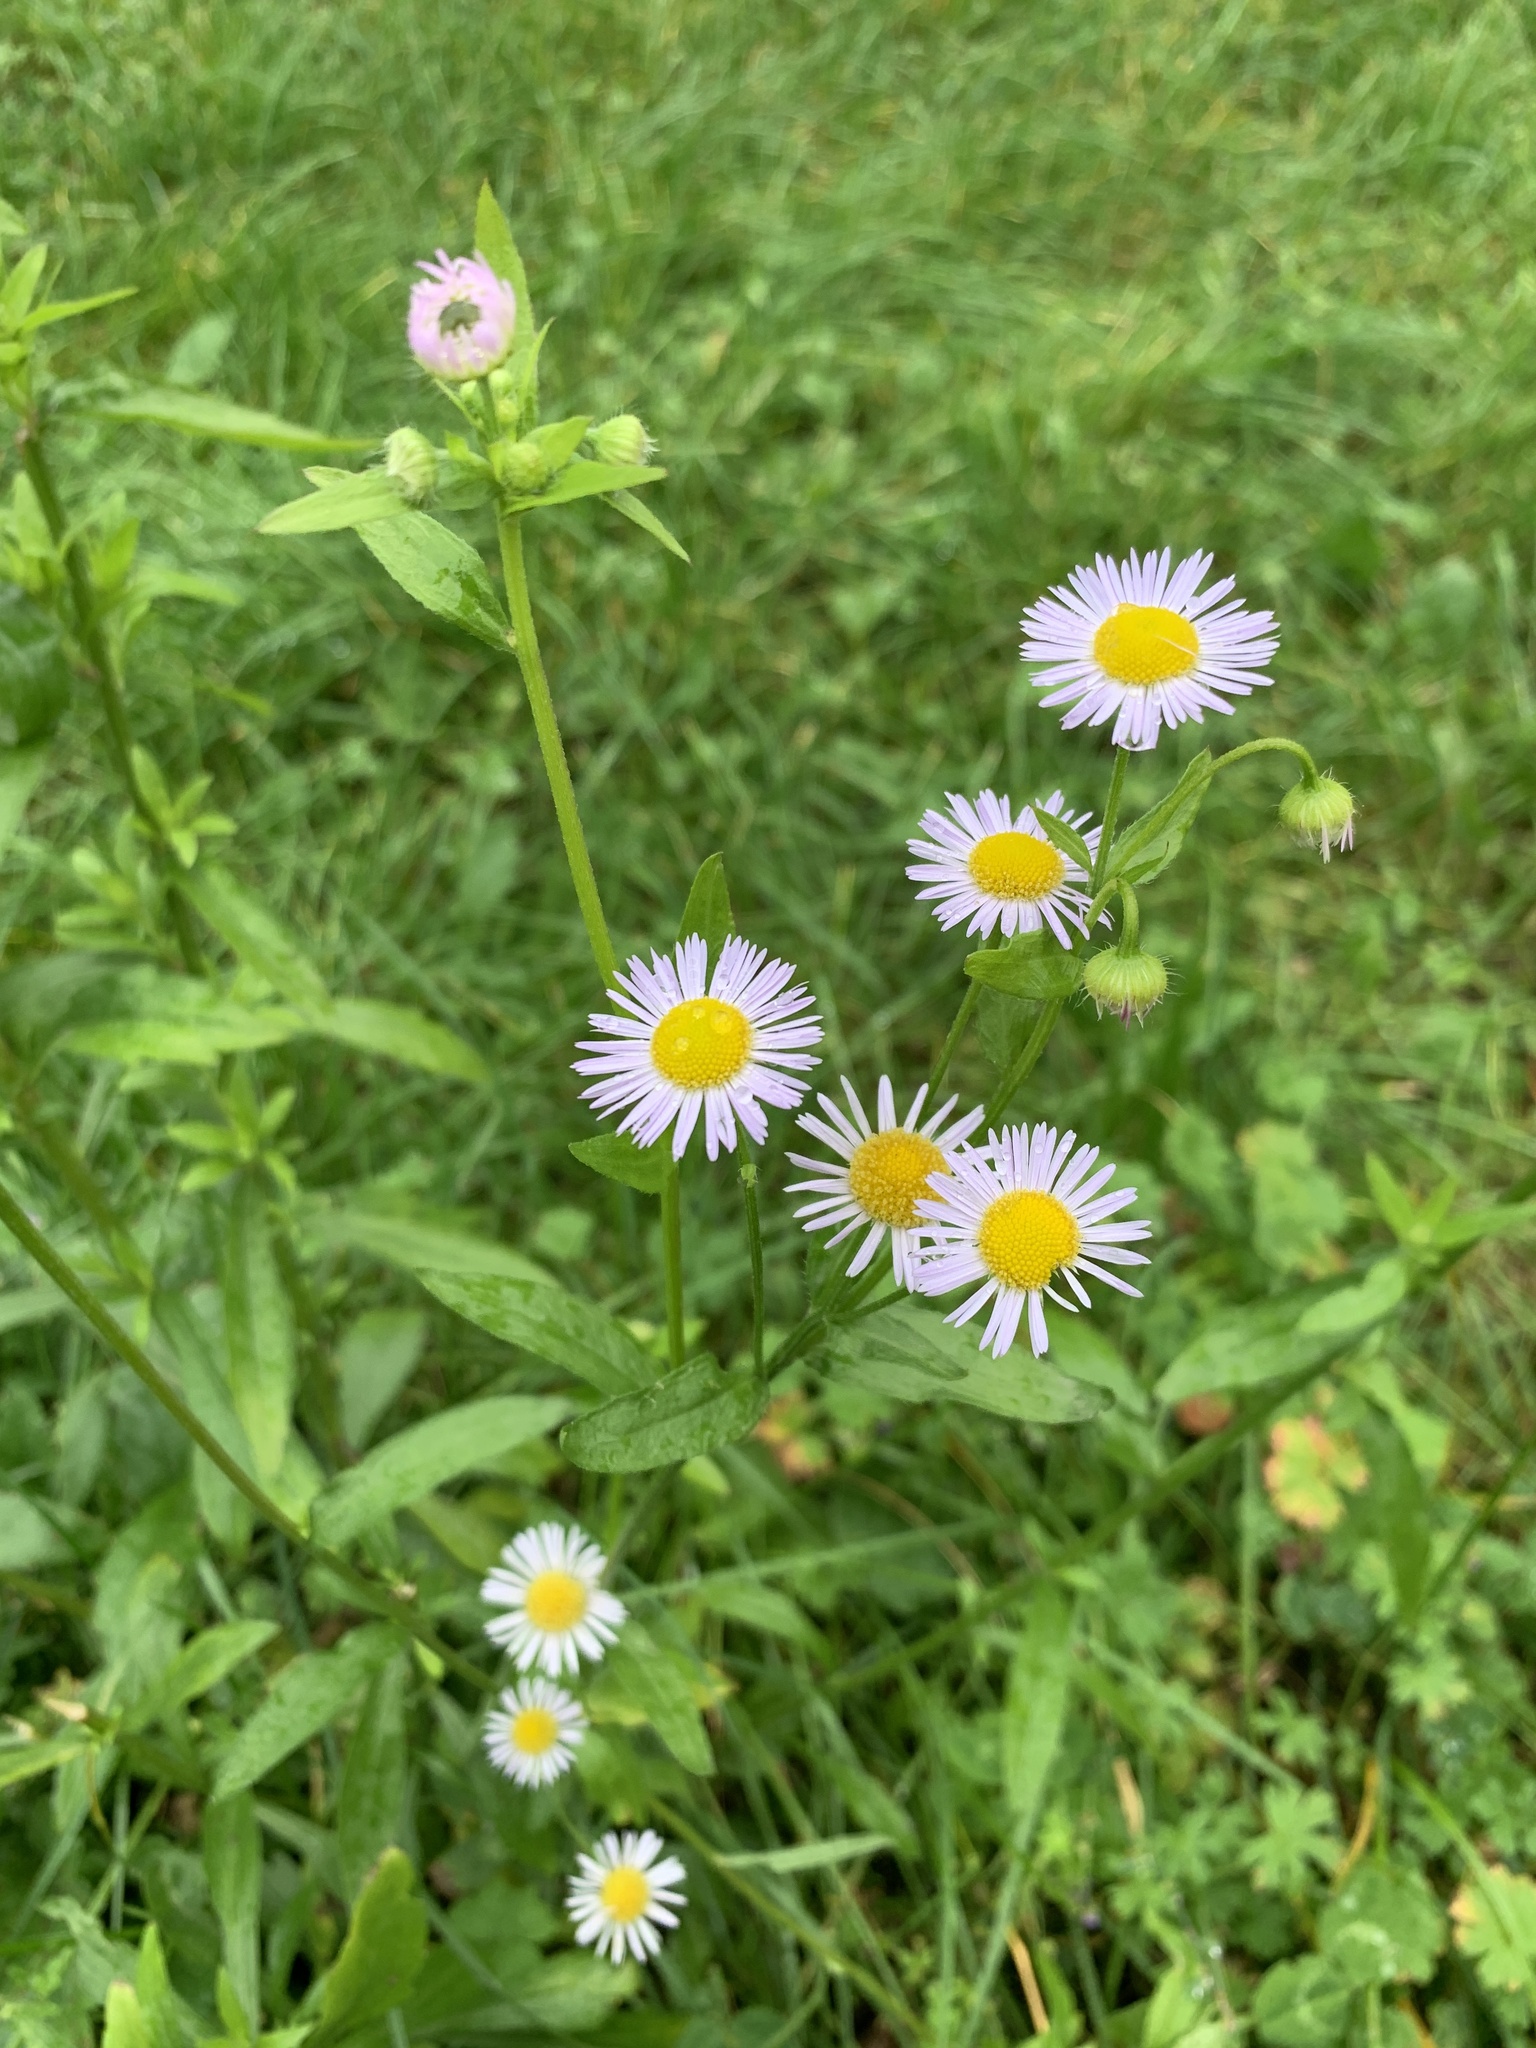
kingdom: Plantae
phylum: Tracheophyta
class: Magnoliopsida
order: Asterales
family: Asteraceae
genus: Erigeron
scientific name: Erigeron annuus
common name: Tall fleabane
